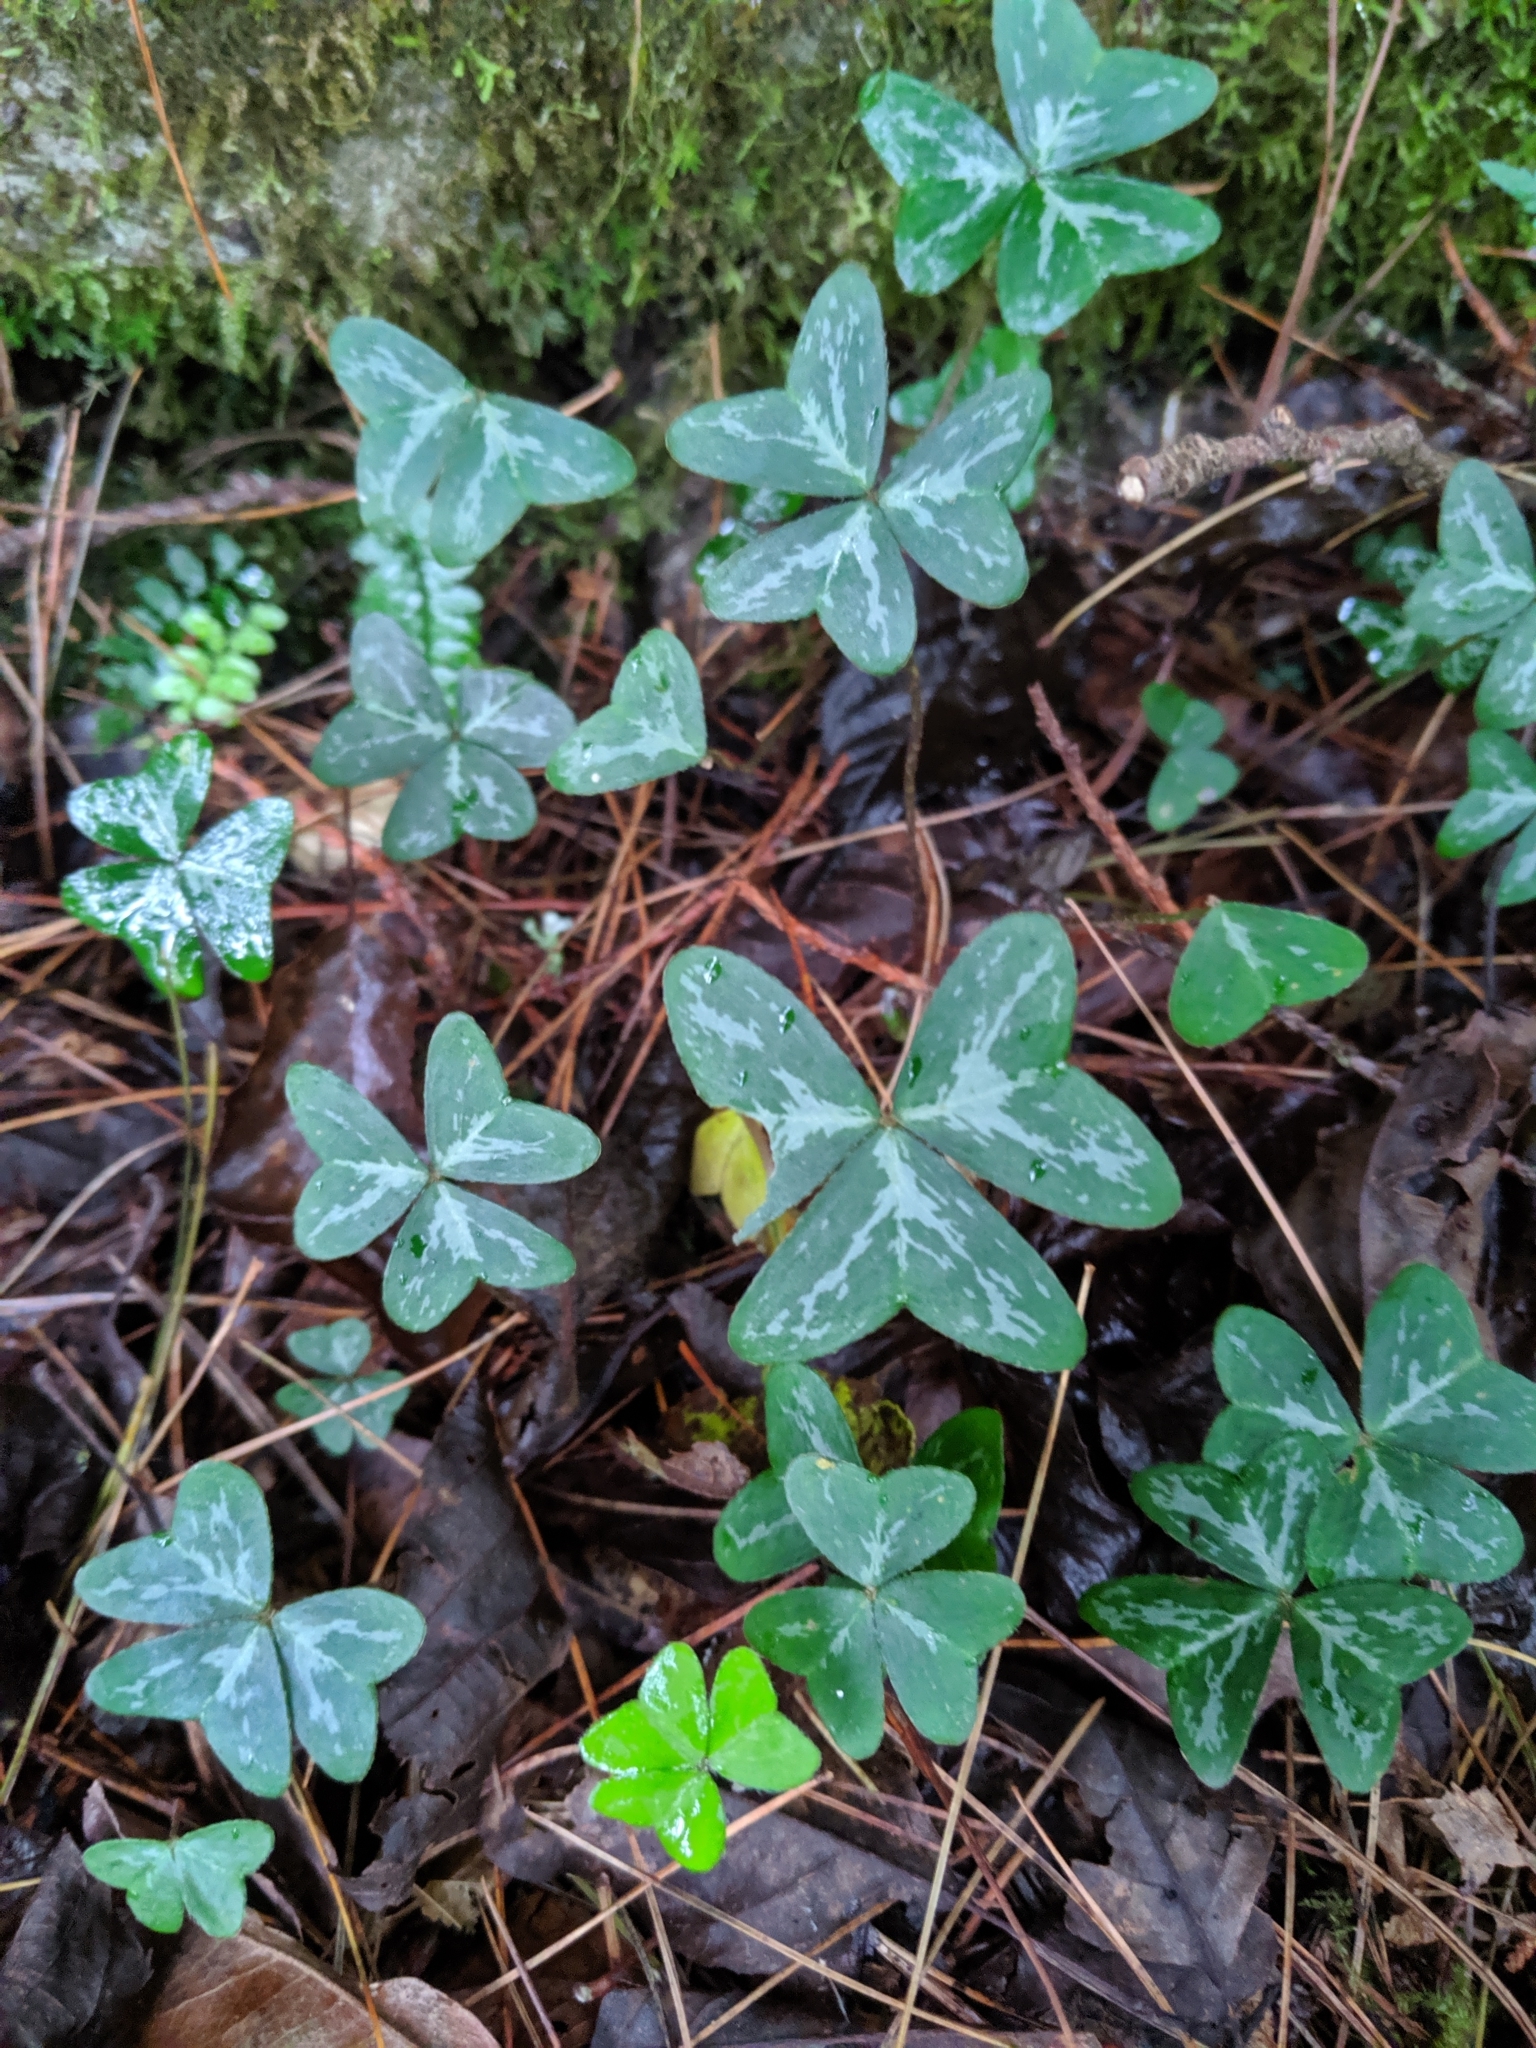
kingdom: Plantae
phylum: Tracheophyta
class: Magnoliopsida
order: Oxalidales
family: Oxalidaceae
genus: Oxalis
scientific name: Oxalis griffithii
